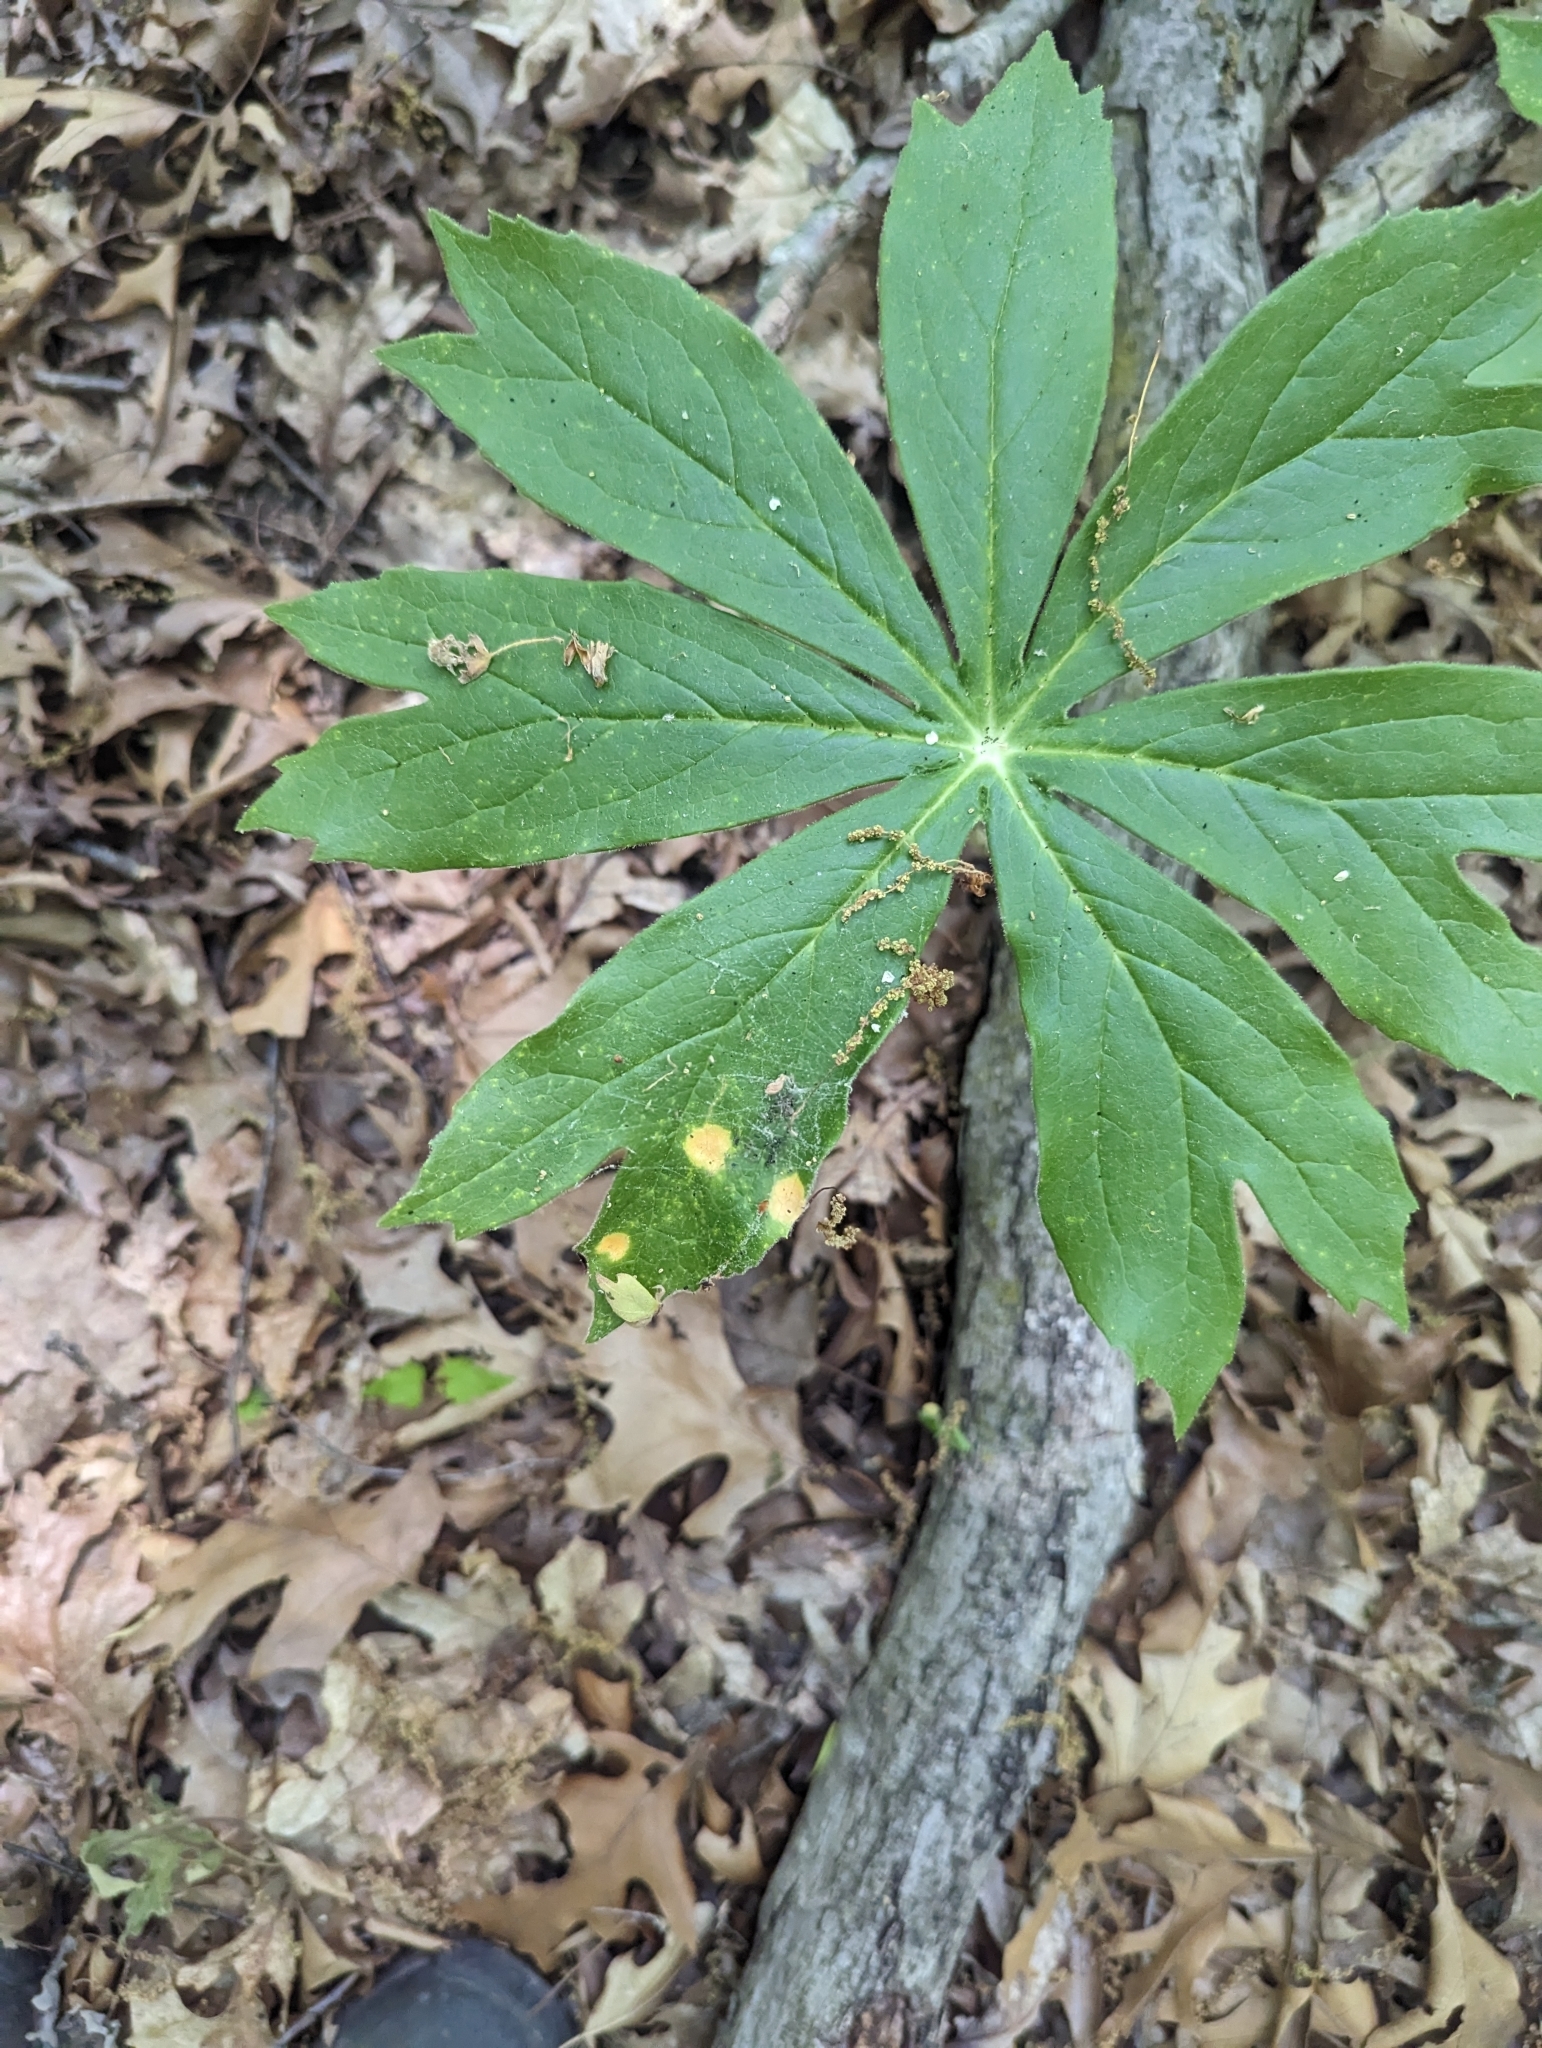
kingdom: Fungi
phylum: Basidiomycota
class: Pucciniomycetes
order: Pucciniales
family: Pucciniaceae
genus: Puccinia
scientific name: Puccinia podophylli
